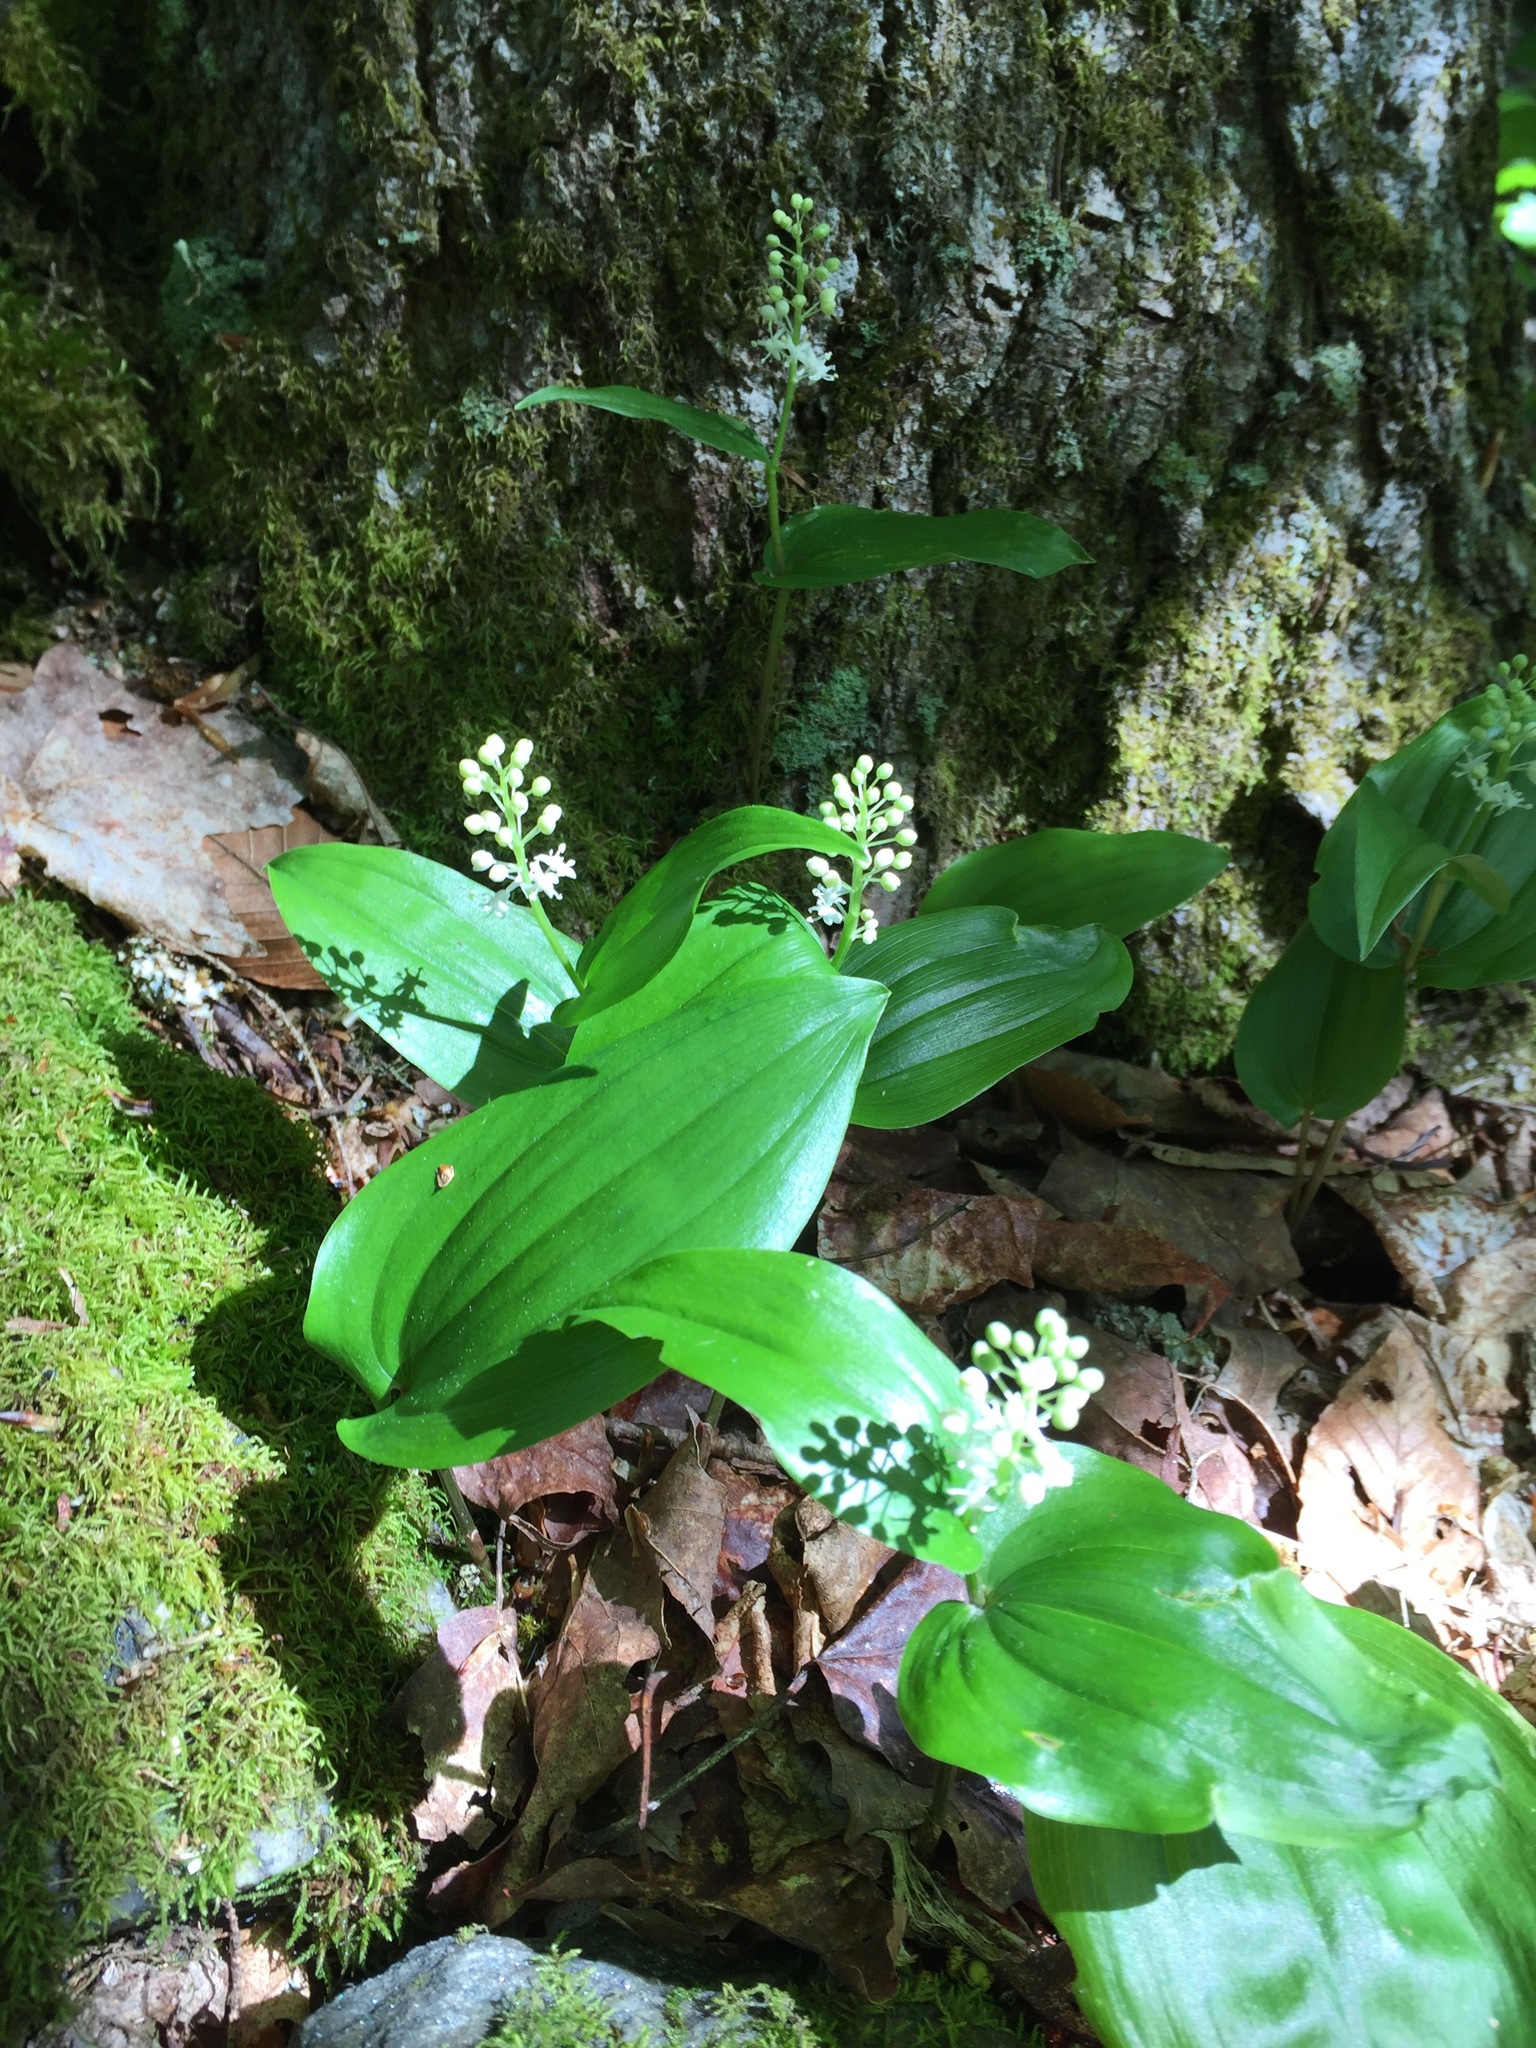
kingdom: Plantae
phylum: Tracheophyta
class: Liliopsida
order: Asparagales
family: Asparagaceae
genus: Maianthemum
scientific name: Maianthemum canadense
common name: False lily-of-the-valley
